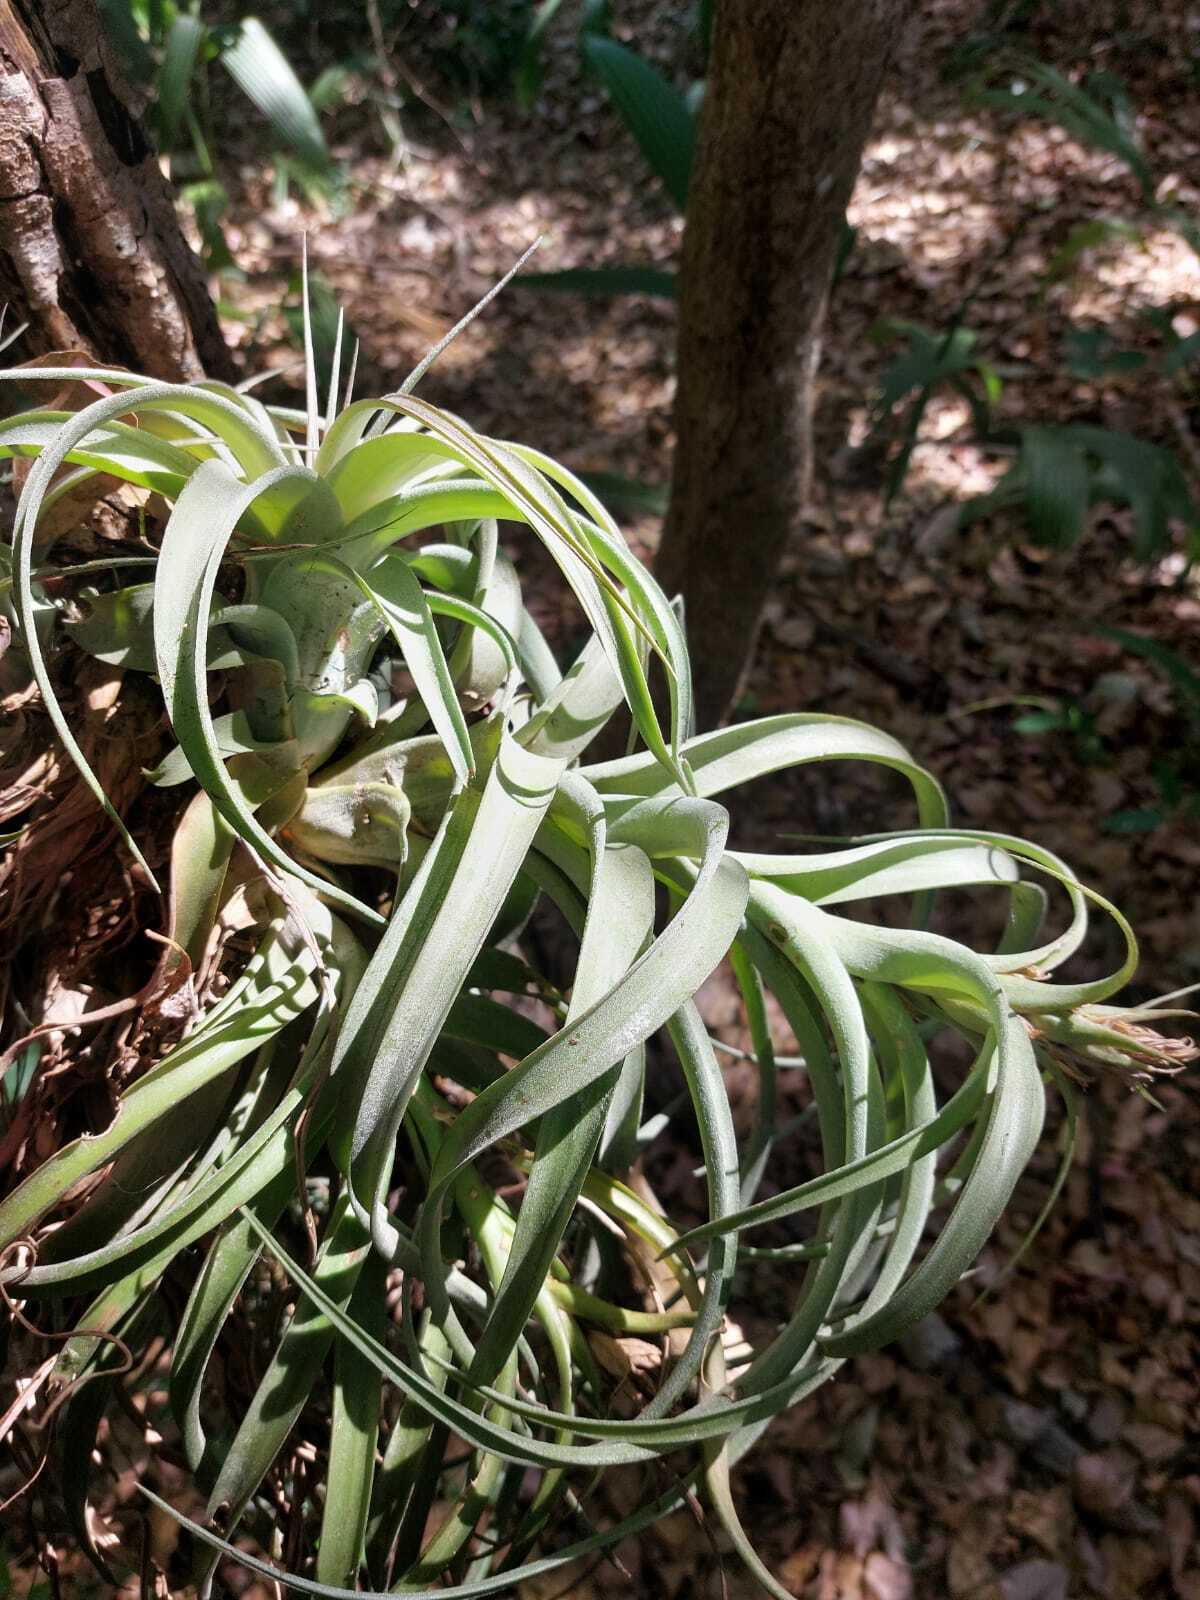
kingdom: Plantae
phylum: Tracheophyta
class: Liliopsida
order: Poales
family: Bromeliaceae
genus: Tillandsia
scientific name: Tillandsia jaguactalensis
